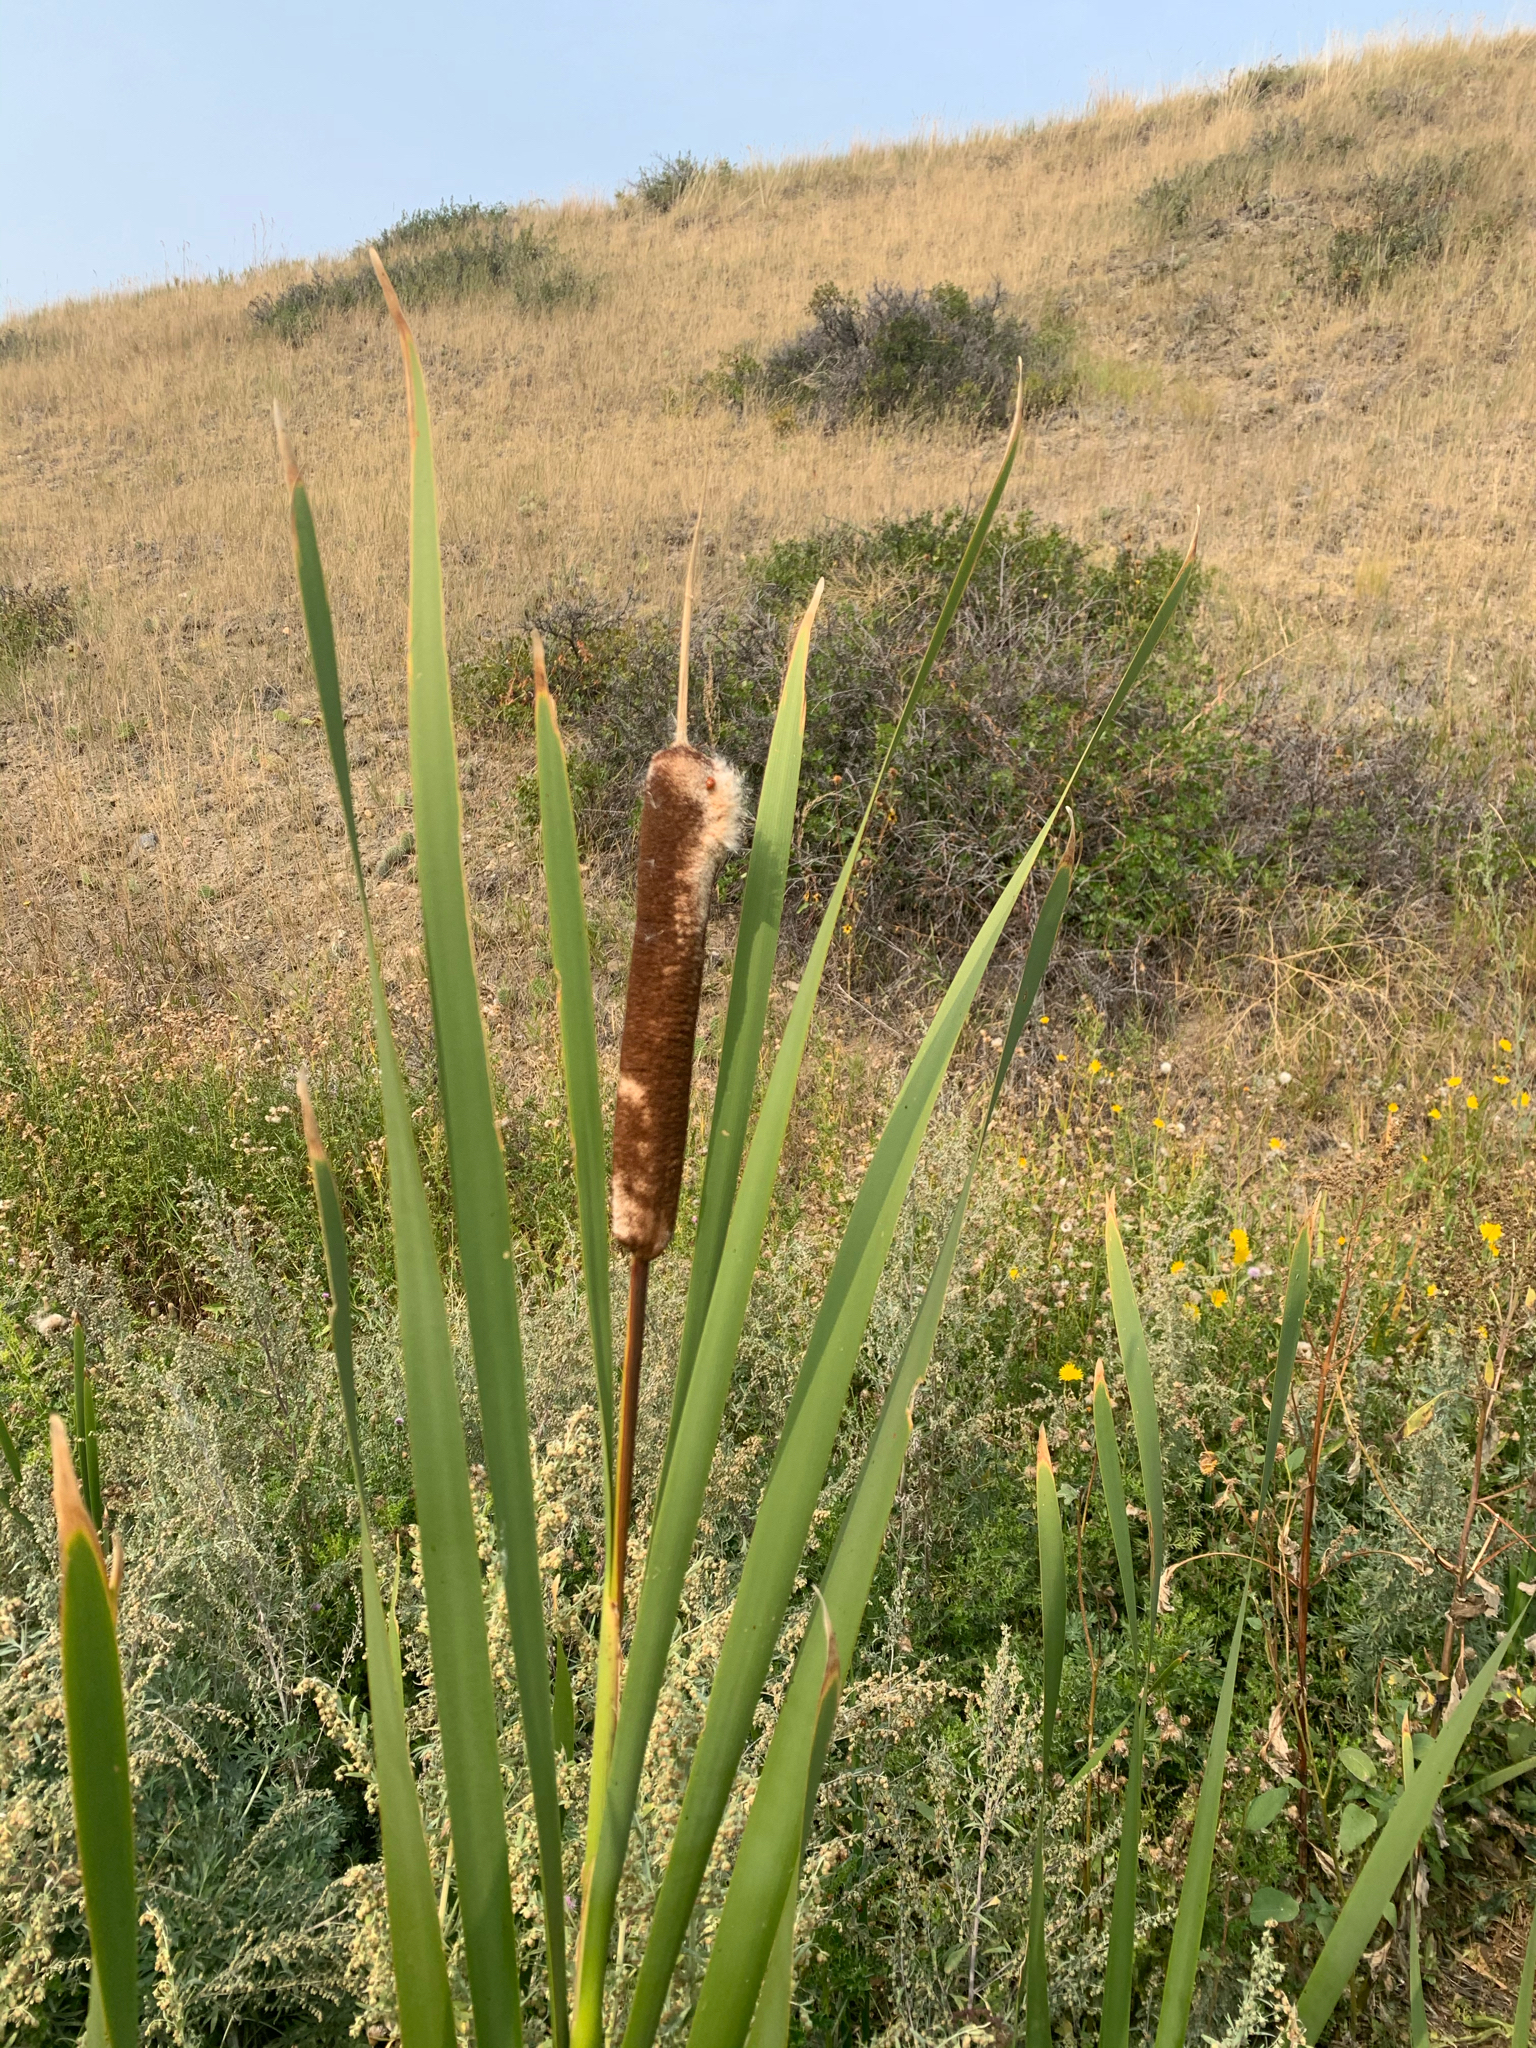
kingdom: Plantae
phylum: Tracheophyta
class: Liliopsida
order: Poales
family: Typhaceae
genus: Typha
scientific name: Typha latifolia
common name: Broadleaf cattail
